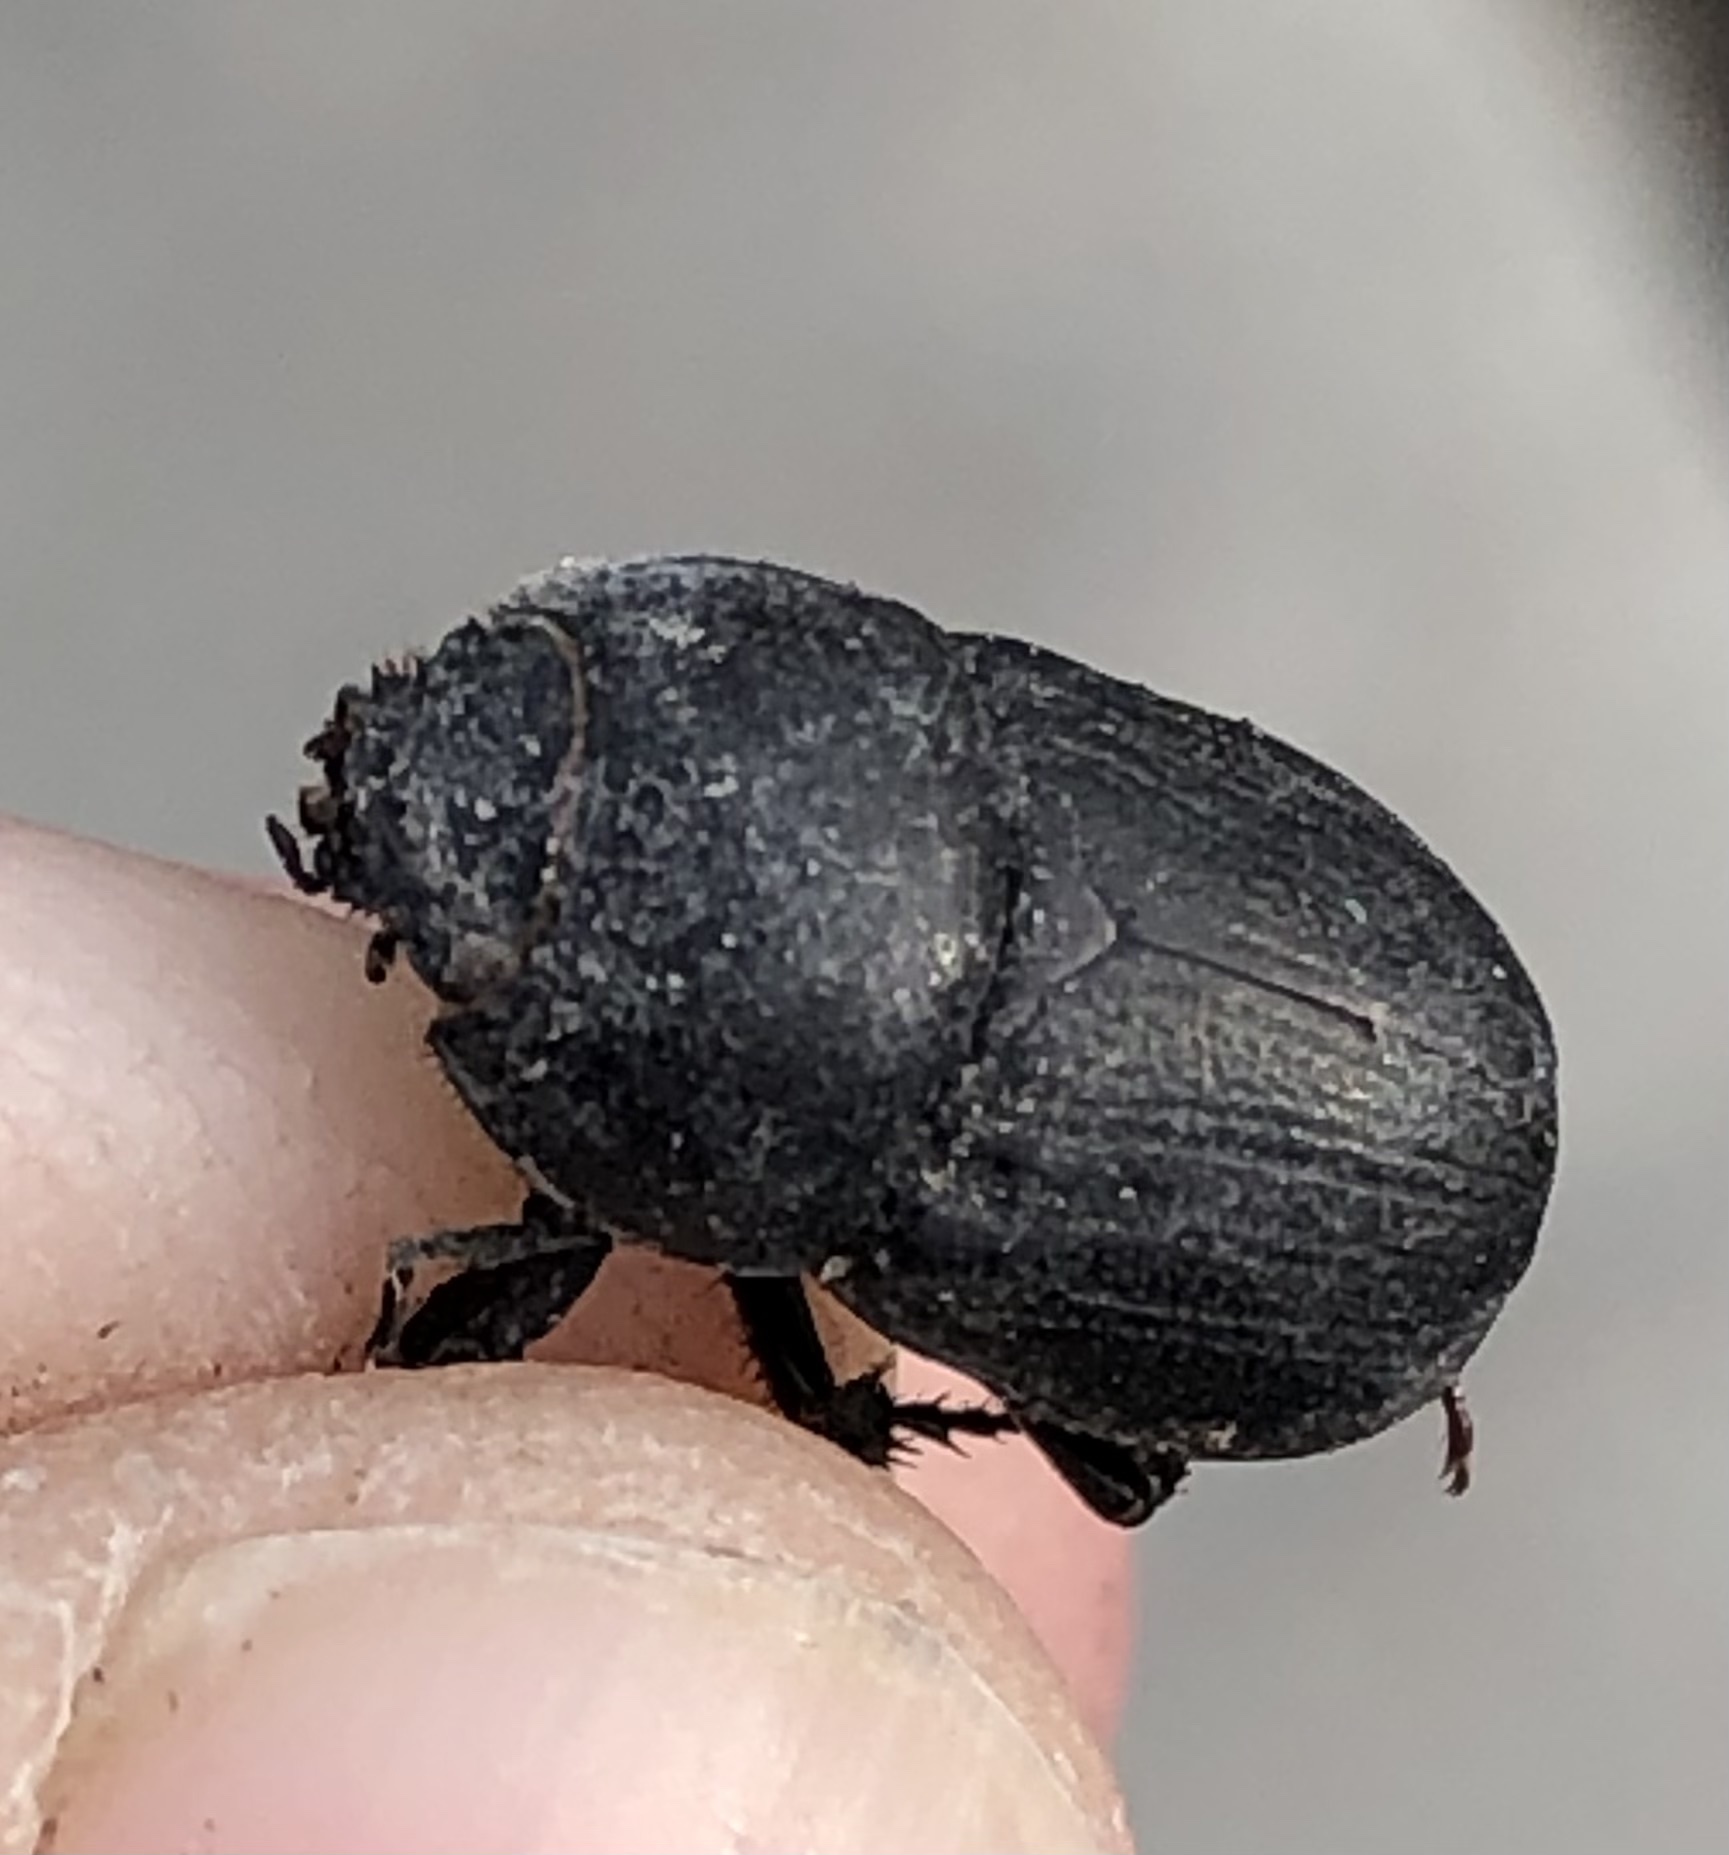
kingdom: Animalia
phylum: Arthropoda
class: Insecta
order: Coleoptera
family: Scarabaeidae
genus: Euetheola
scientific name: Euetheola humilis
